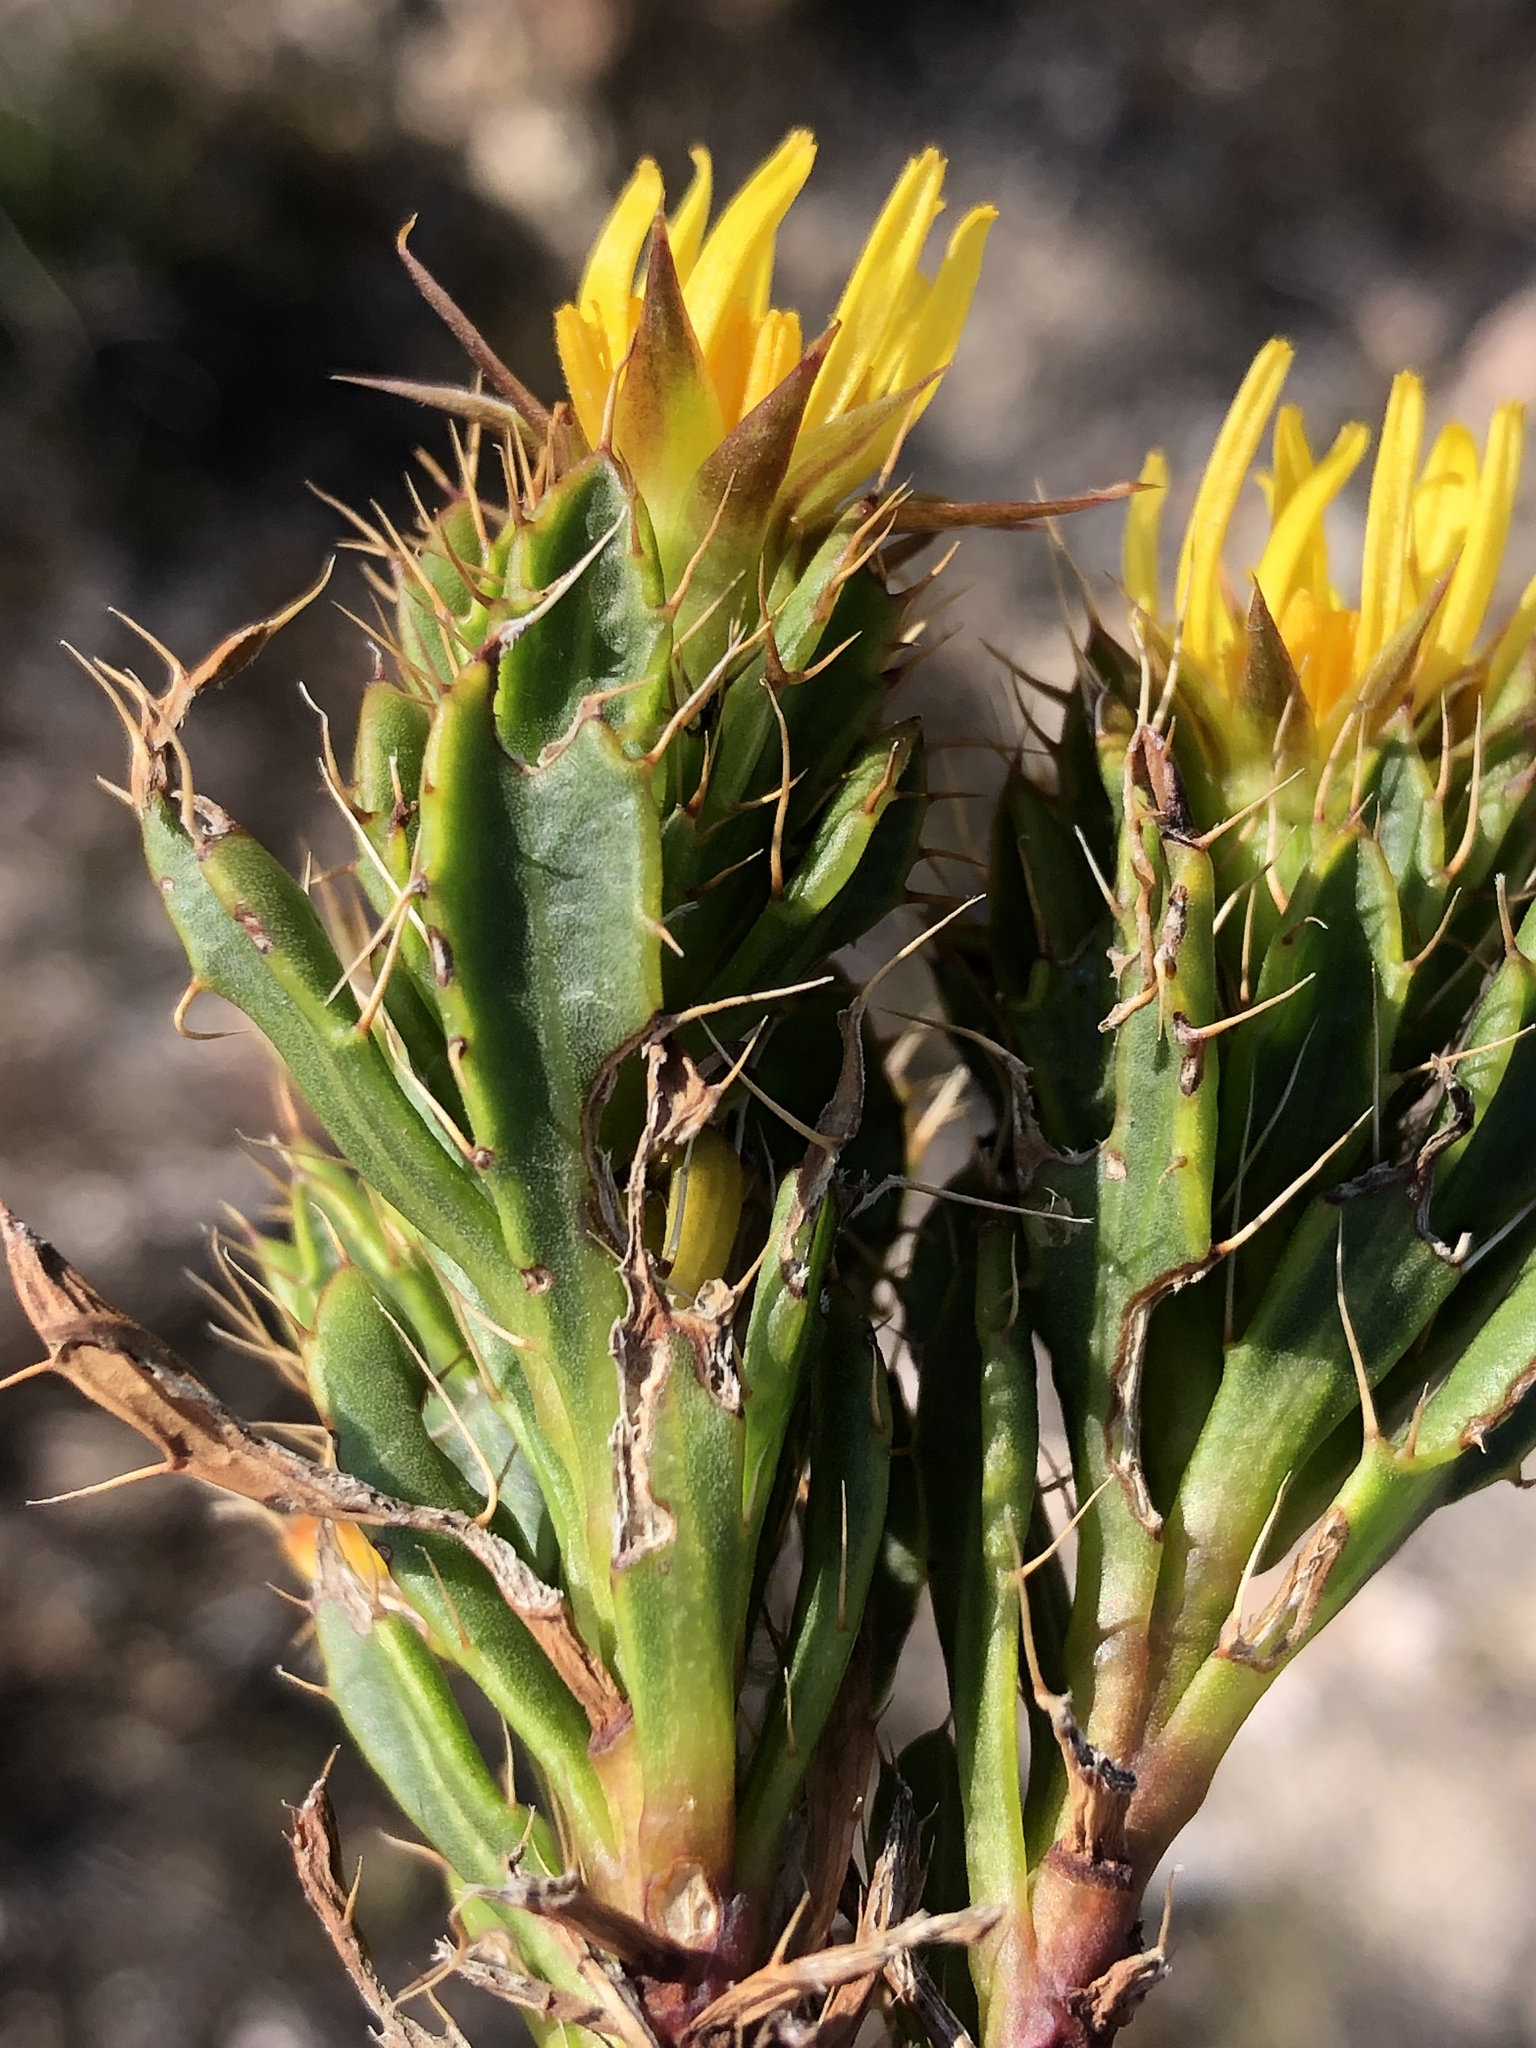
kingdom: Plantae
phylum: Tracheophyta
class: Magnoliopsida
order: Asterales
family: Asteraceae
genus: Cullumia
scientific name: Cullumia aculeata
